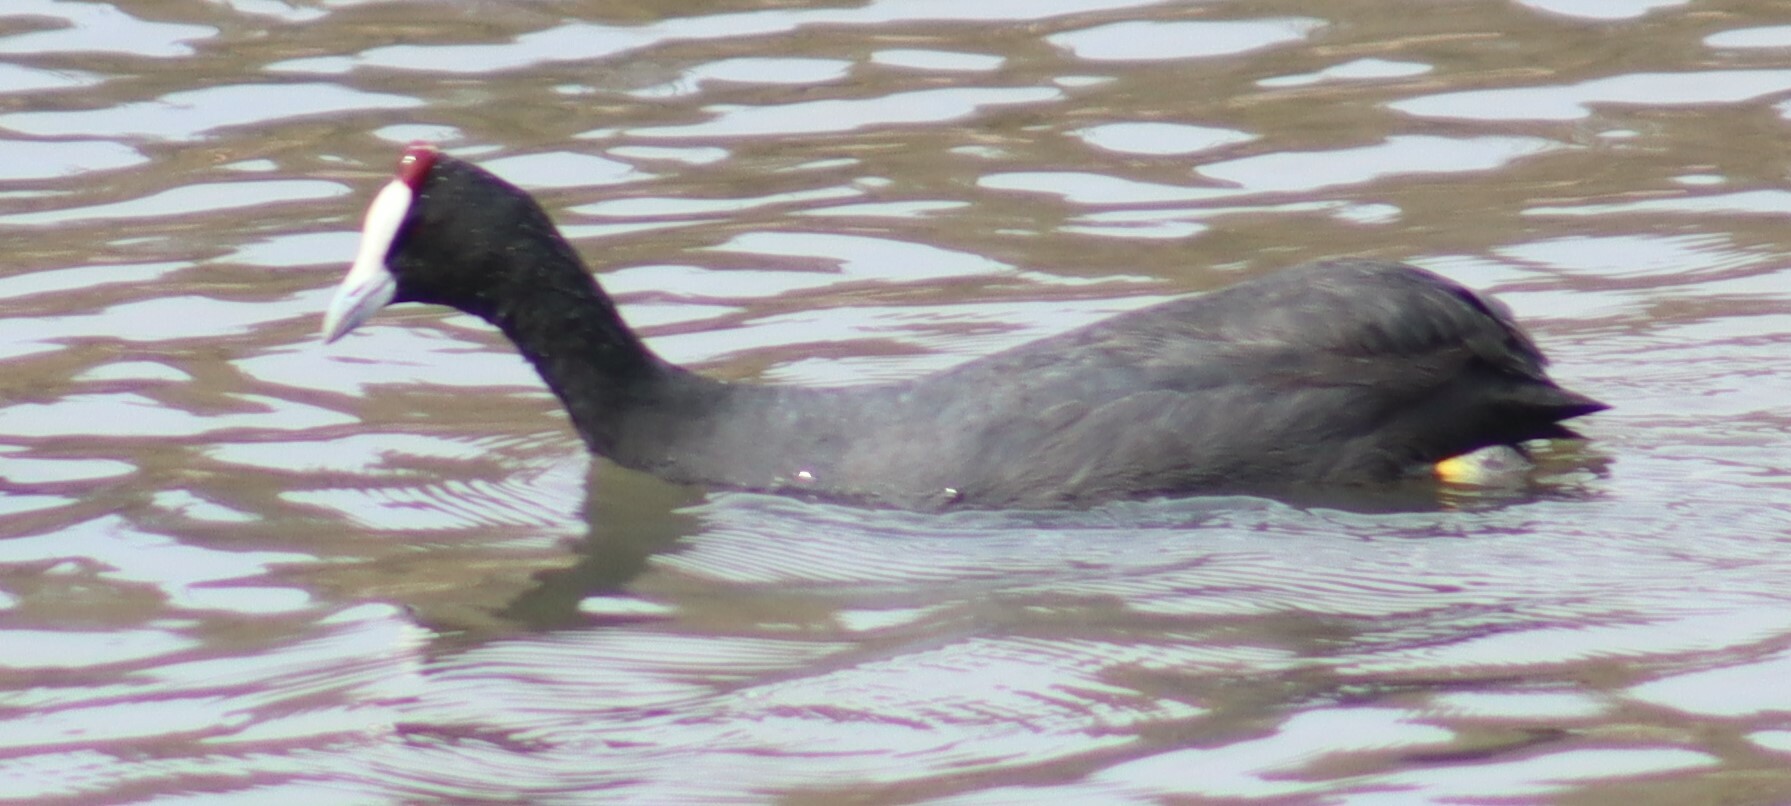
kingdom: Animalia
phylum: Chordata
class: Aves
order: Gruiformes
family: Rallidae
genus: Fulica
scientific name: Fulica cristata
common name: Red-knobbed coot
